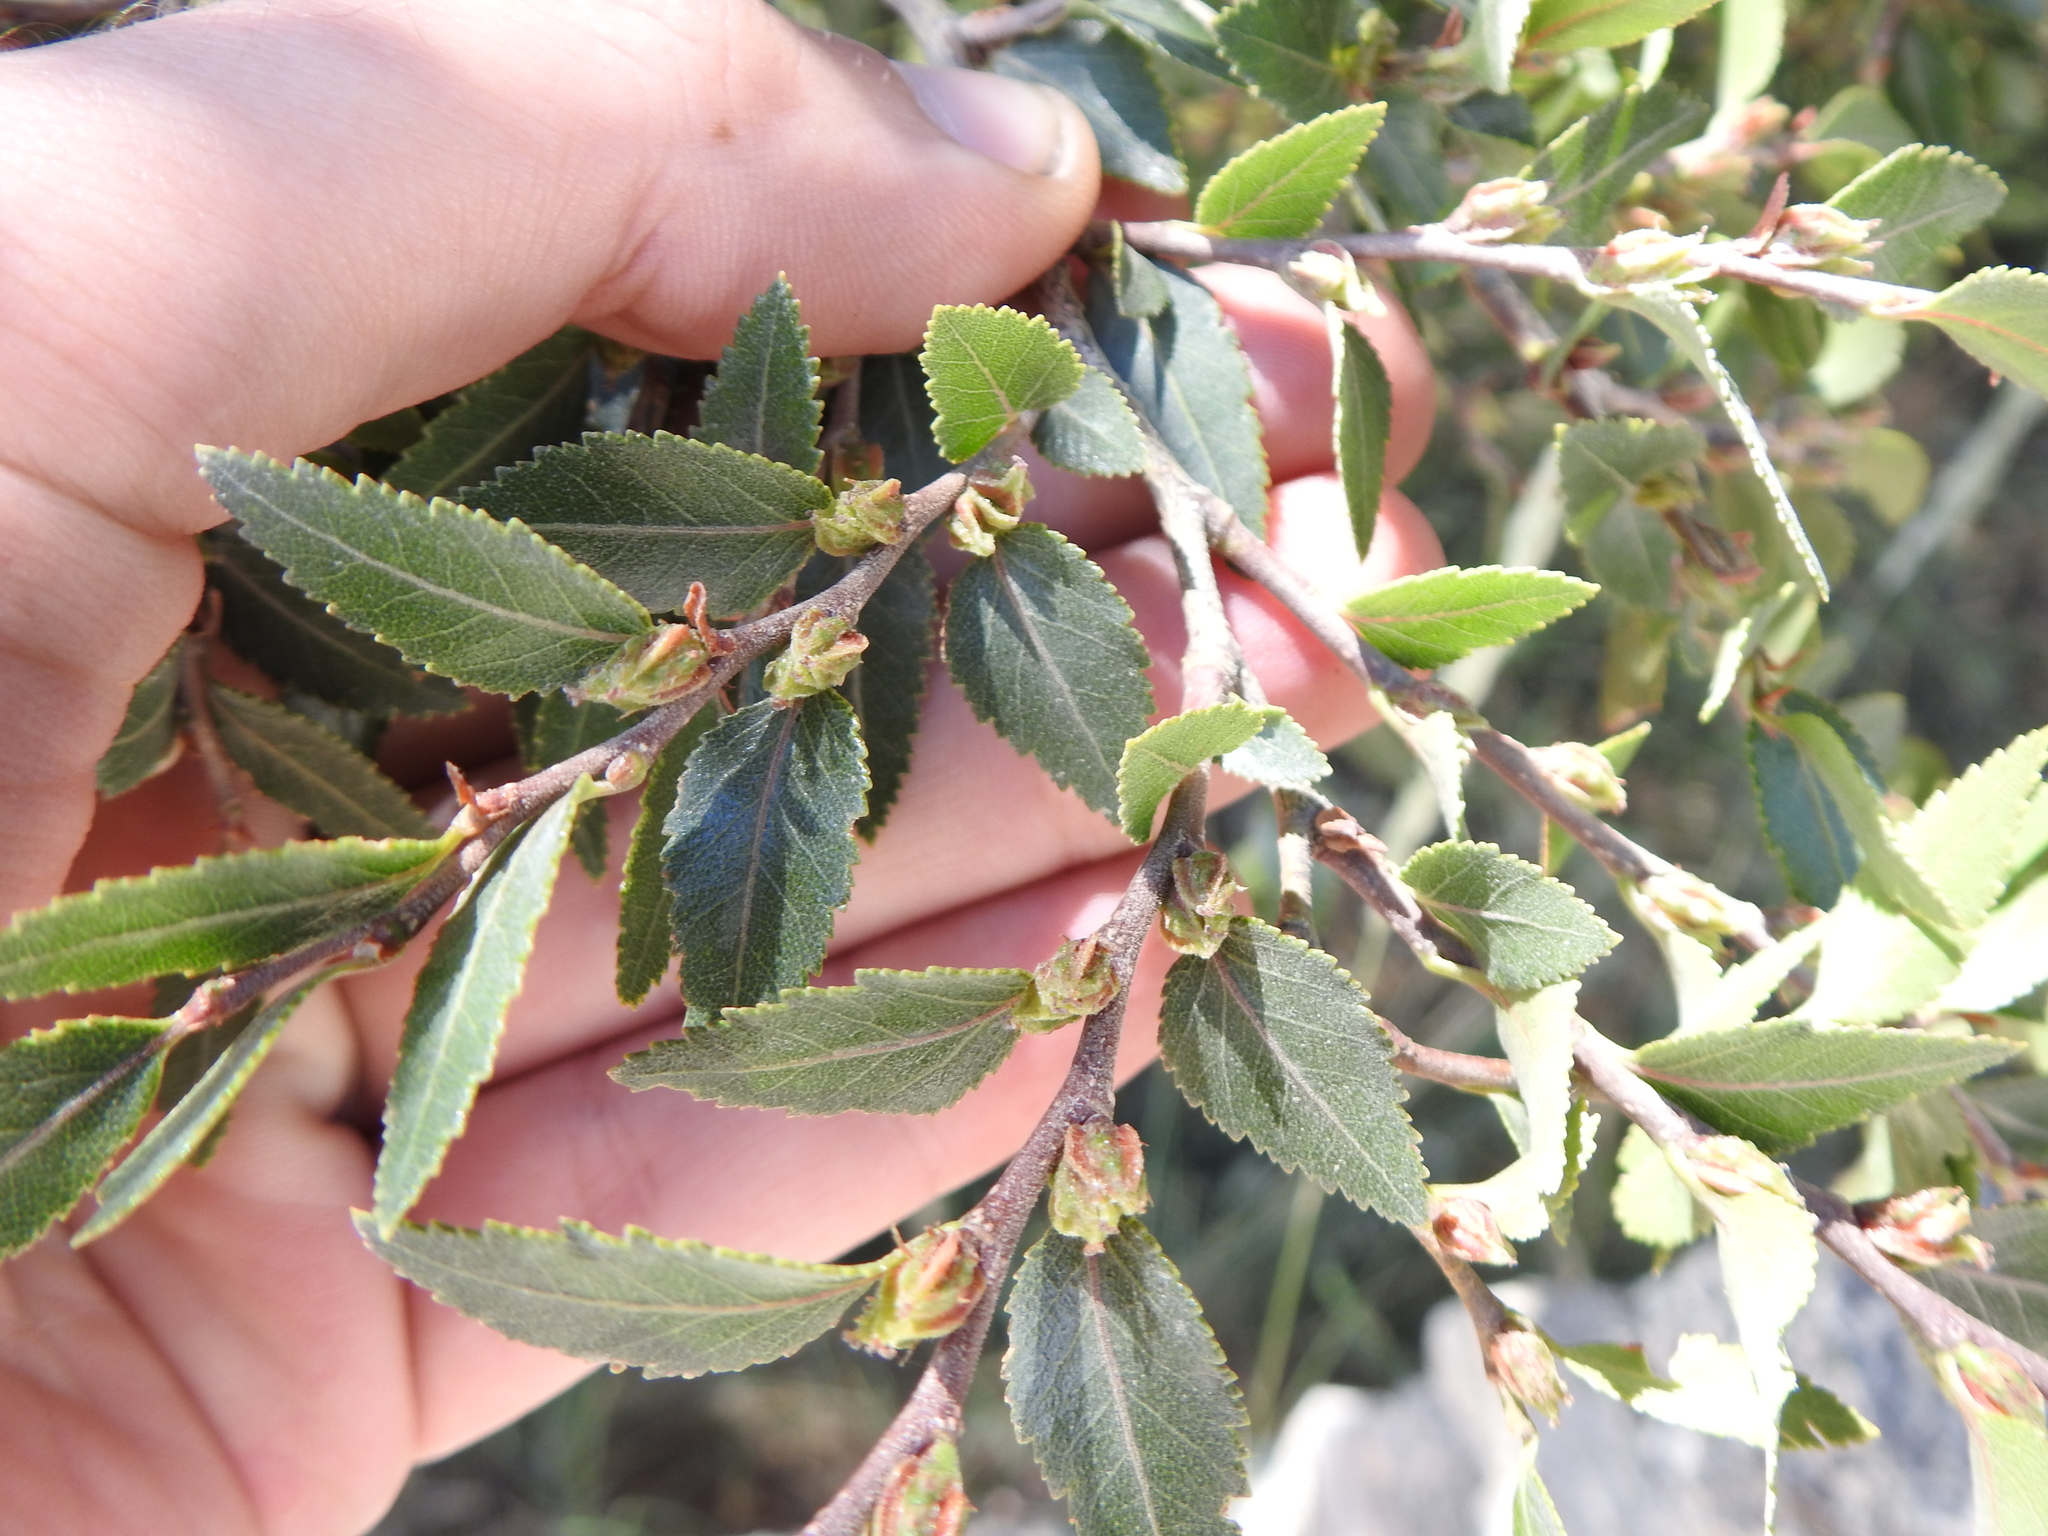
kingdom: Plantae
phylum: Tracheophyta
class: Magnoliopsida
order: Fagales
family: Nothofagaceae
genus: Nothofagus
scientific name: Nothofagus dombeyi
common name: Coigue
